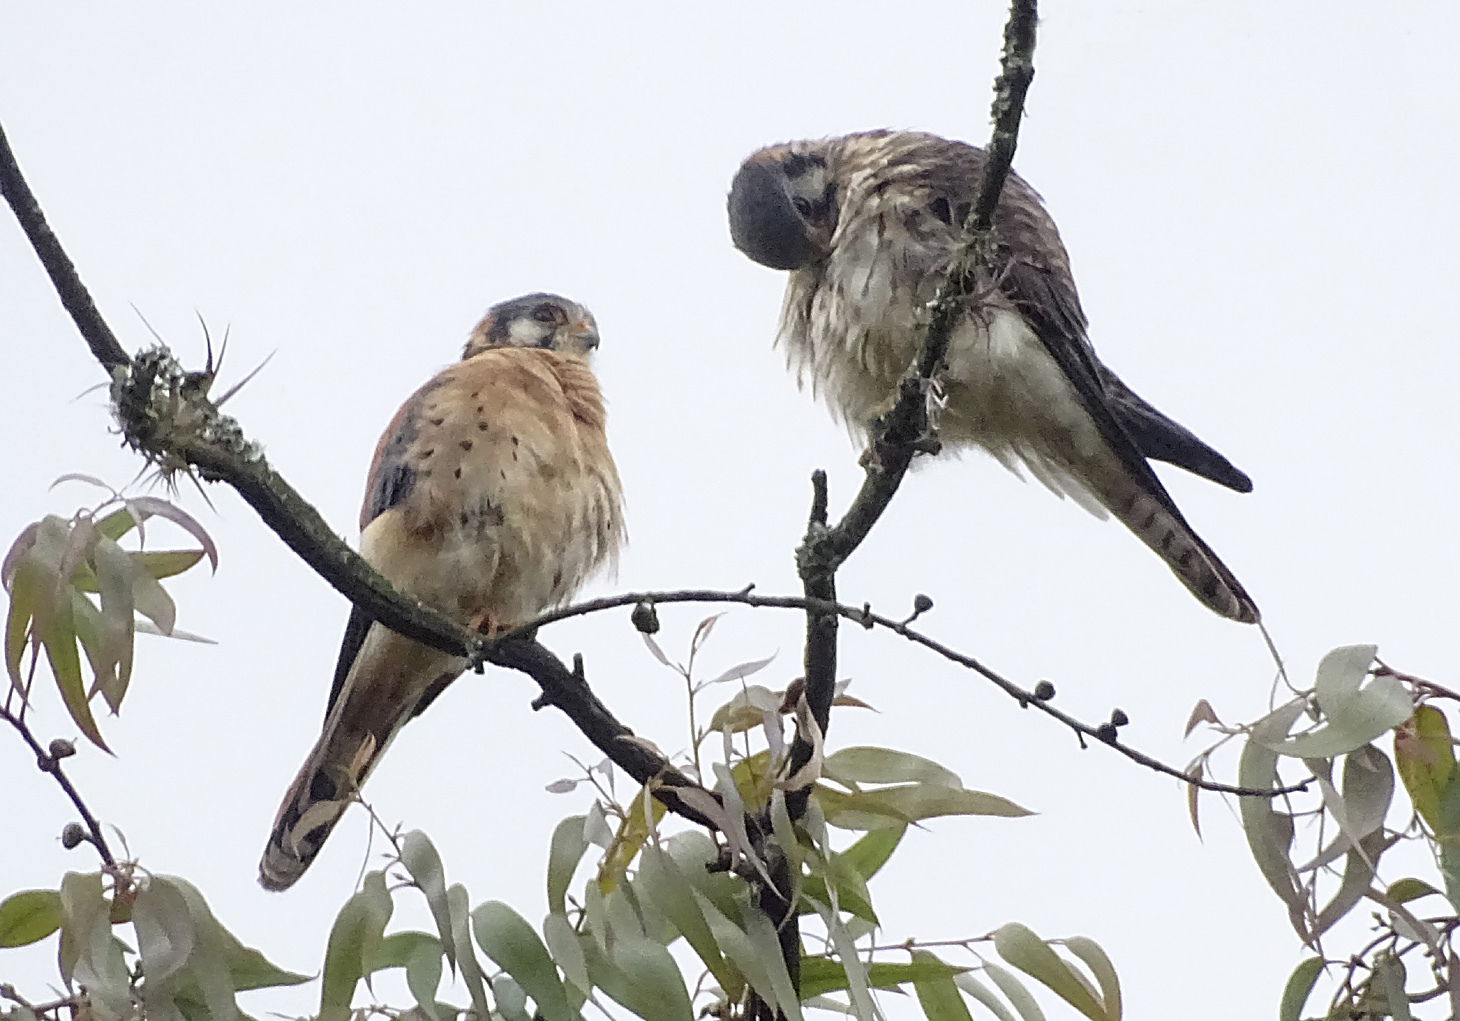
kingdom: Animalia
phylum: Chordata
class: Aves
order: Falconiformes
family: Falconidae
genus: Falco
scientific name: Falco sparverius
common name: American kestrel
